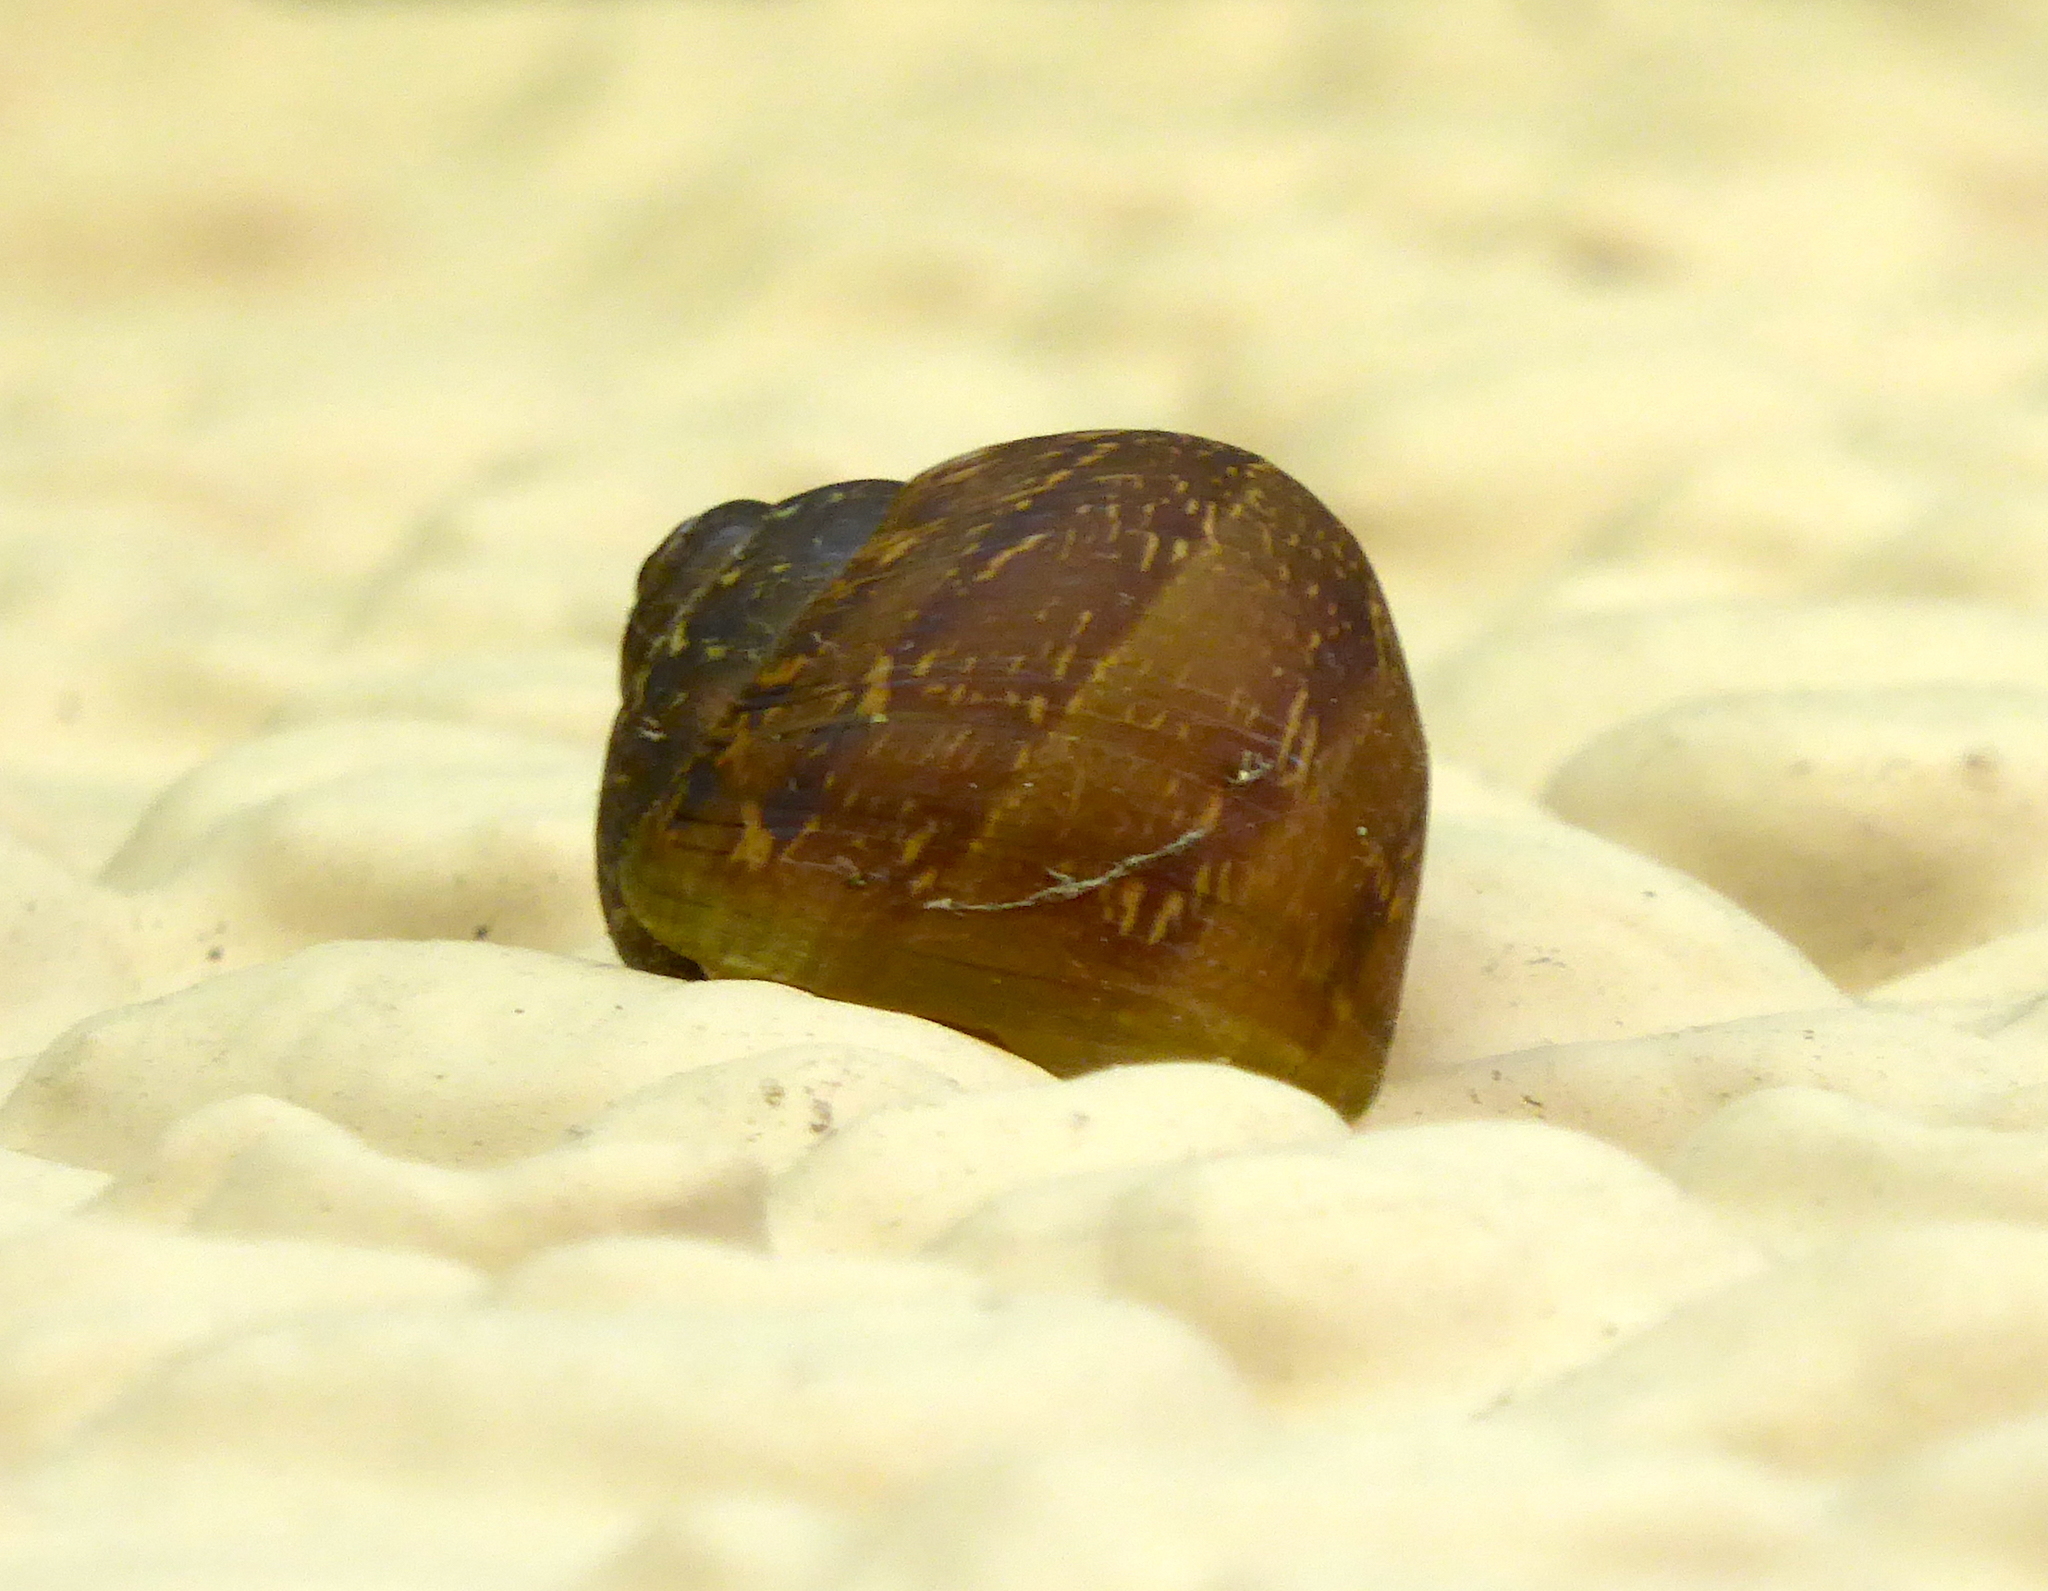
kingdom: Animalia
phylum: Mollusca
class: Gastropoda
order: Stylommatophora
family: Helicidae
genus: Cornu
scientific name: Cornu aspersum
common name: Brown garden snail
